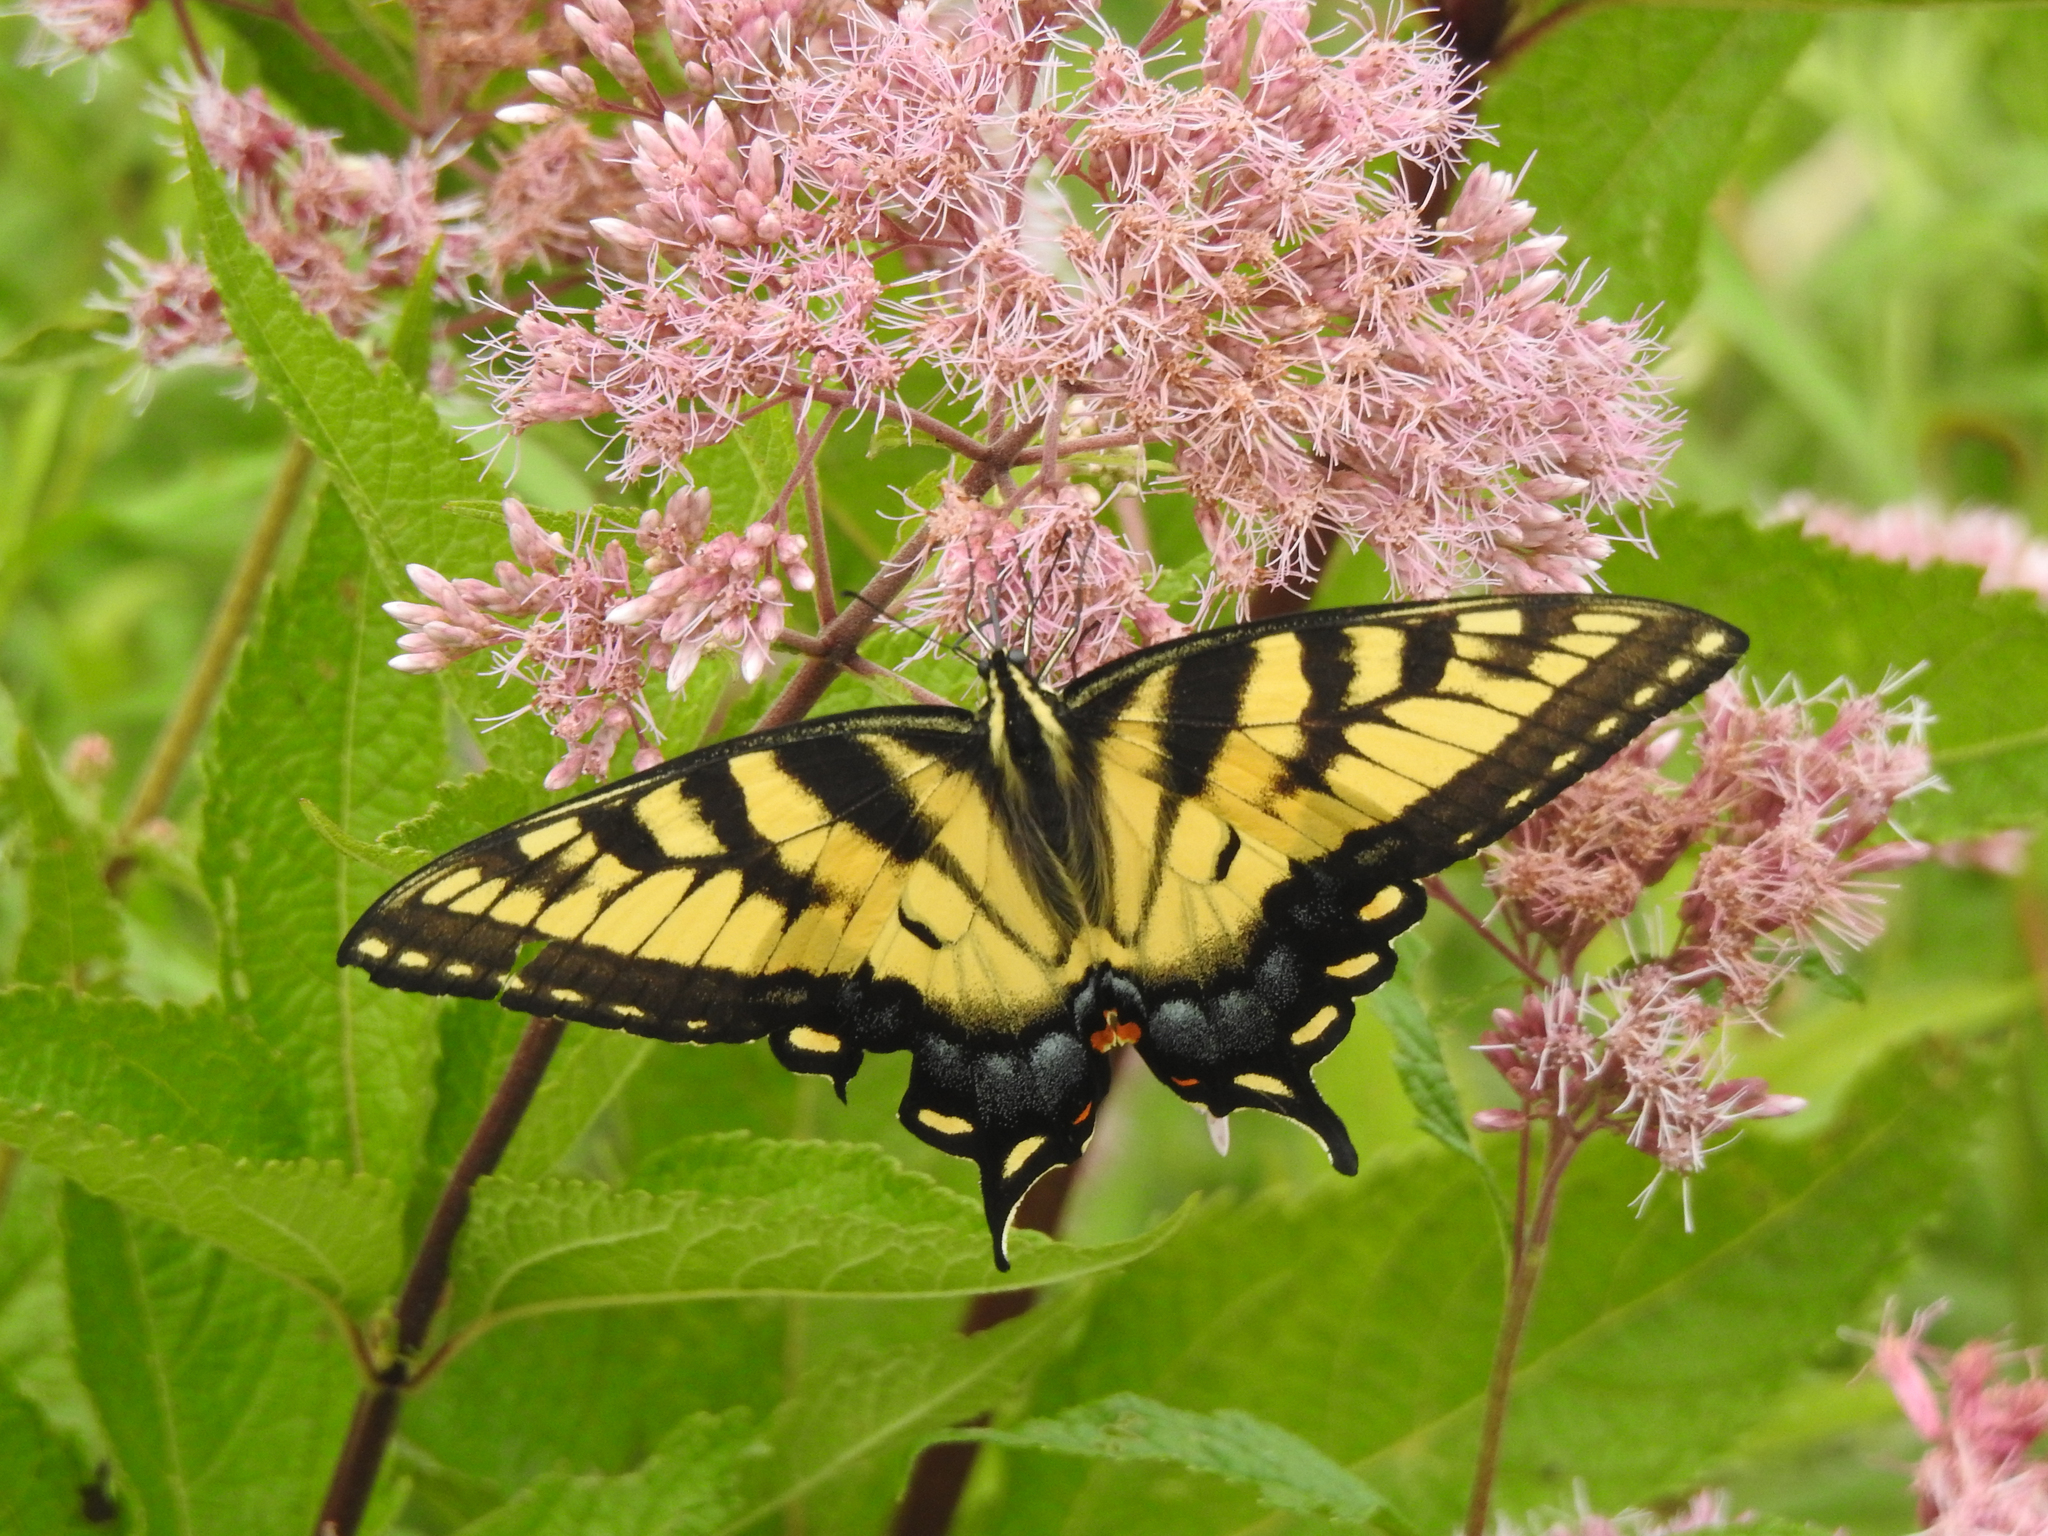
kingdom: Animalia
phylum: Arthropoda
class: Insecta
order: Lepidoptera
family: Papilionidae
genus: Papilio
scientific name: Papilio glaucus
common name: Tiger swallowtail
